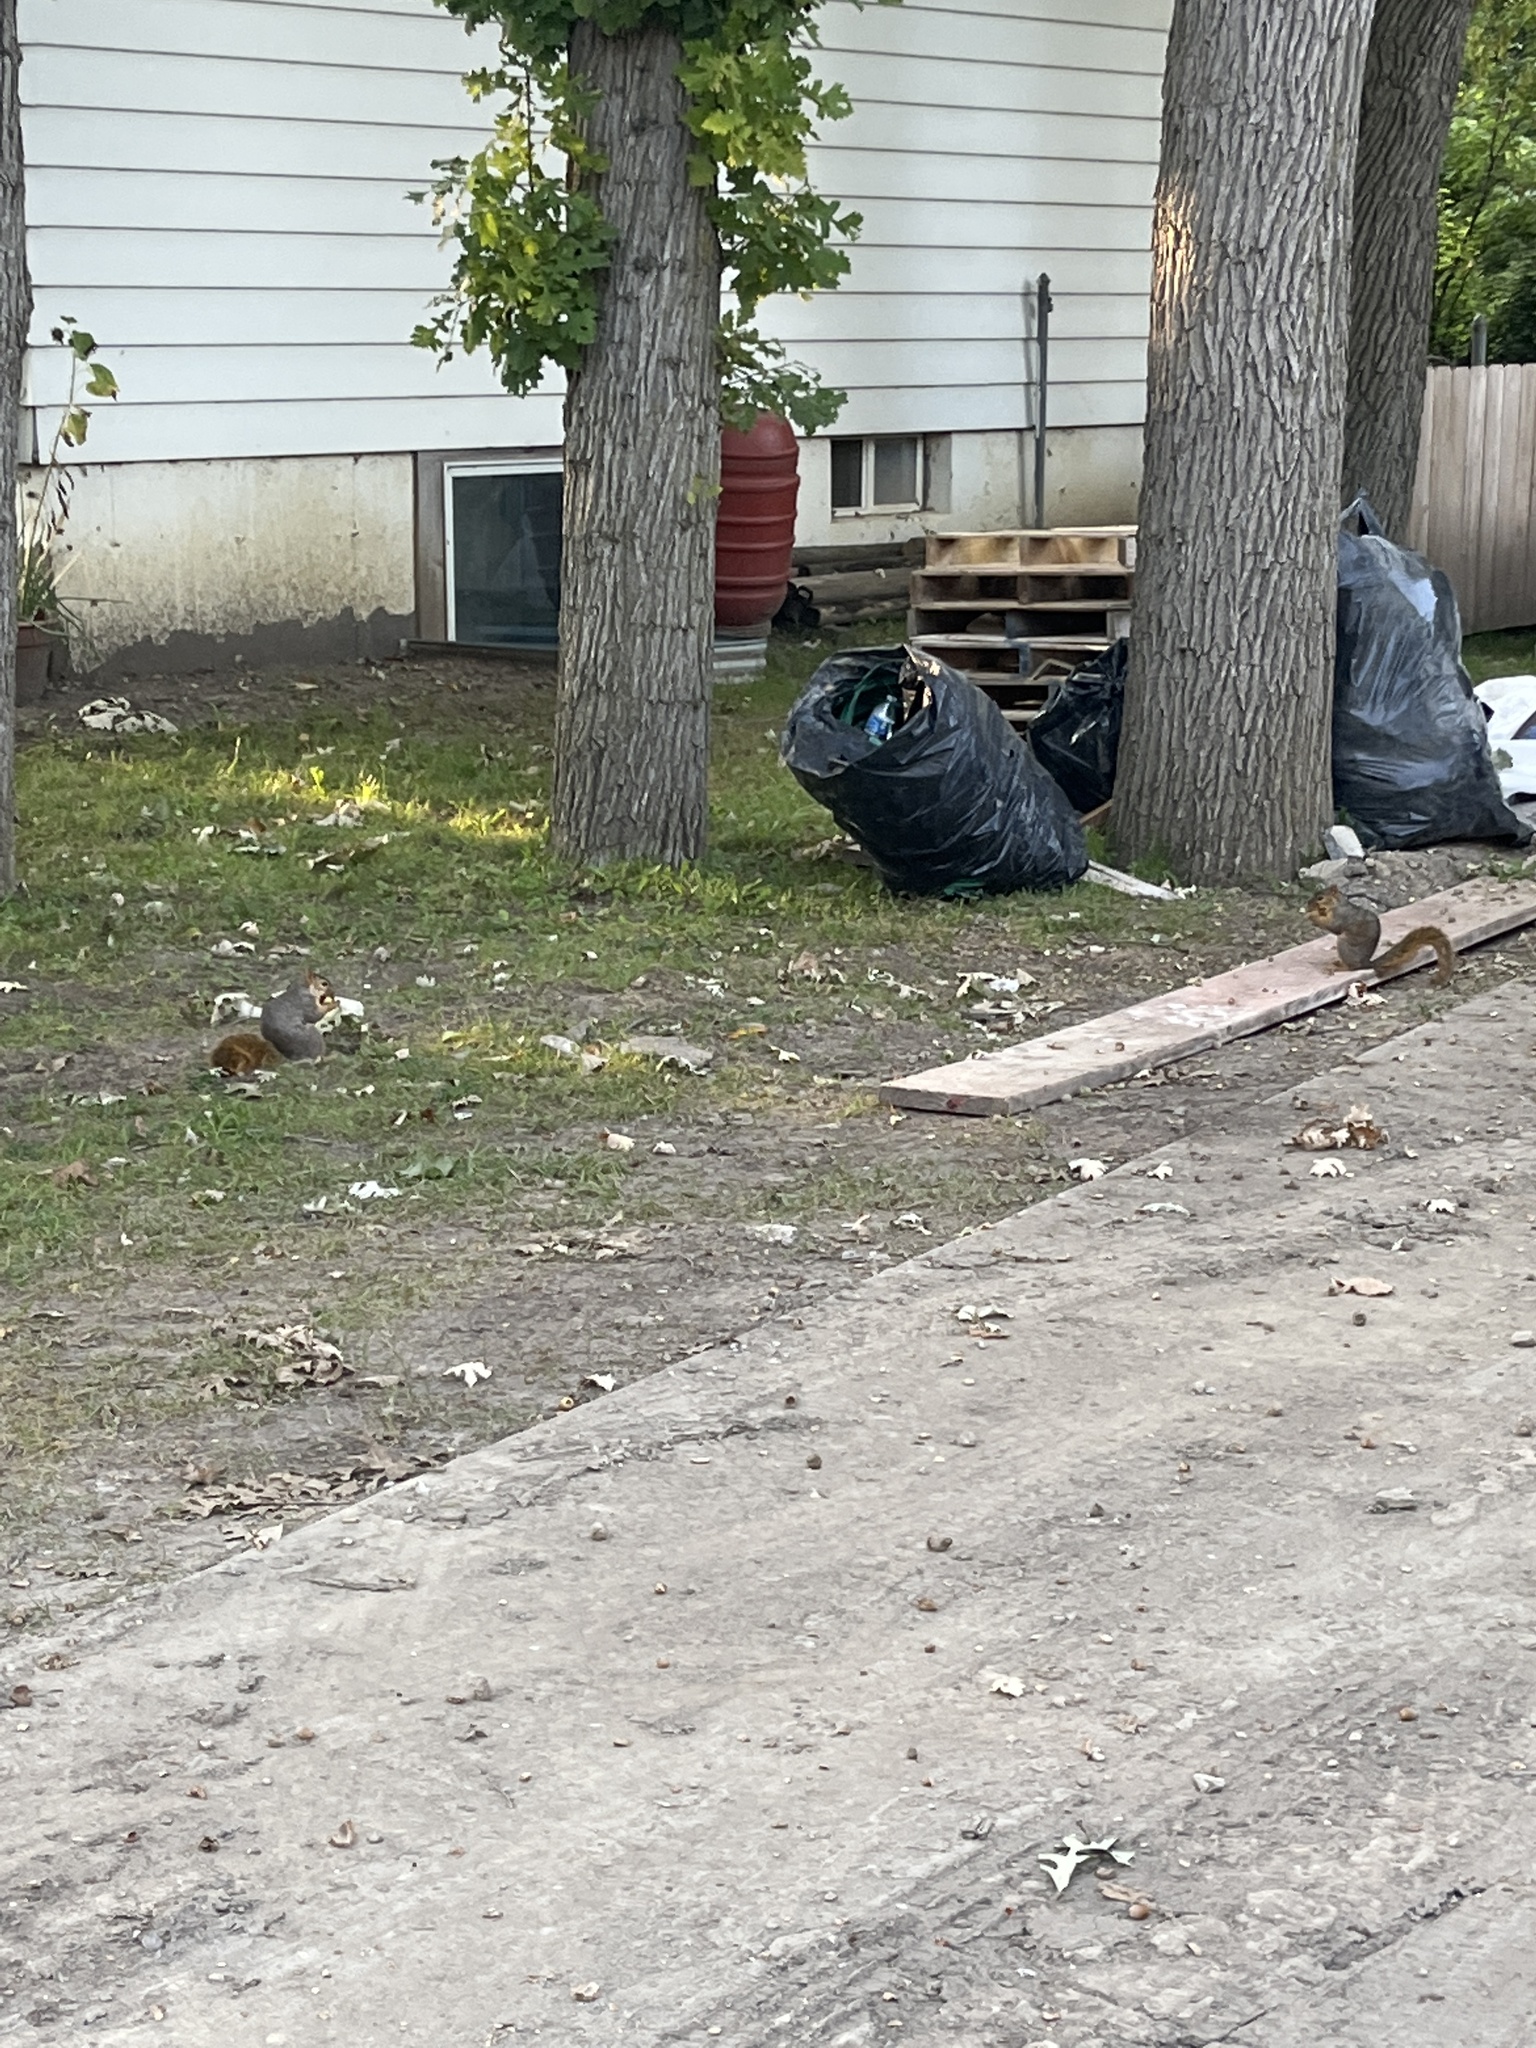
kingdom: Animalia
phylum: Chordata
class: Mammalia
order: Rodentia
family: Sciuridae
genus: Sciurus
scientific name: Sciurus niger
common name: Fox squirrel
